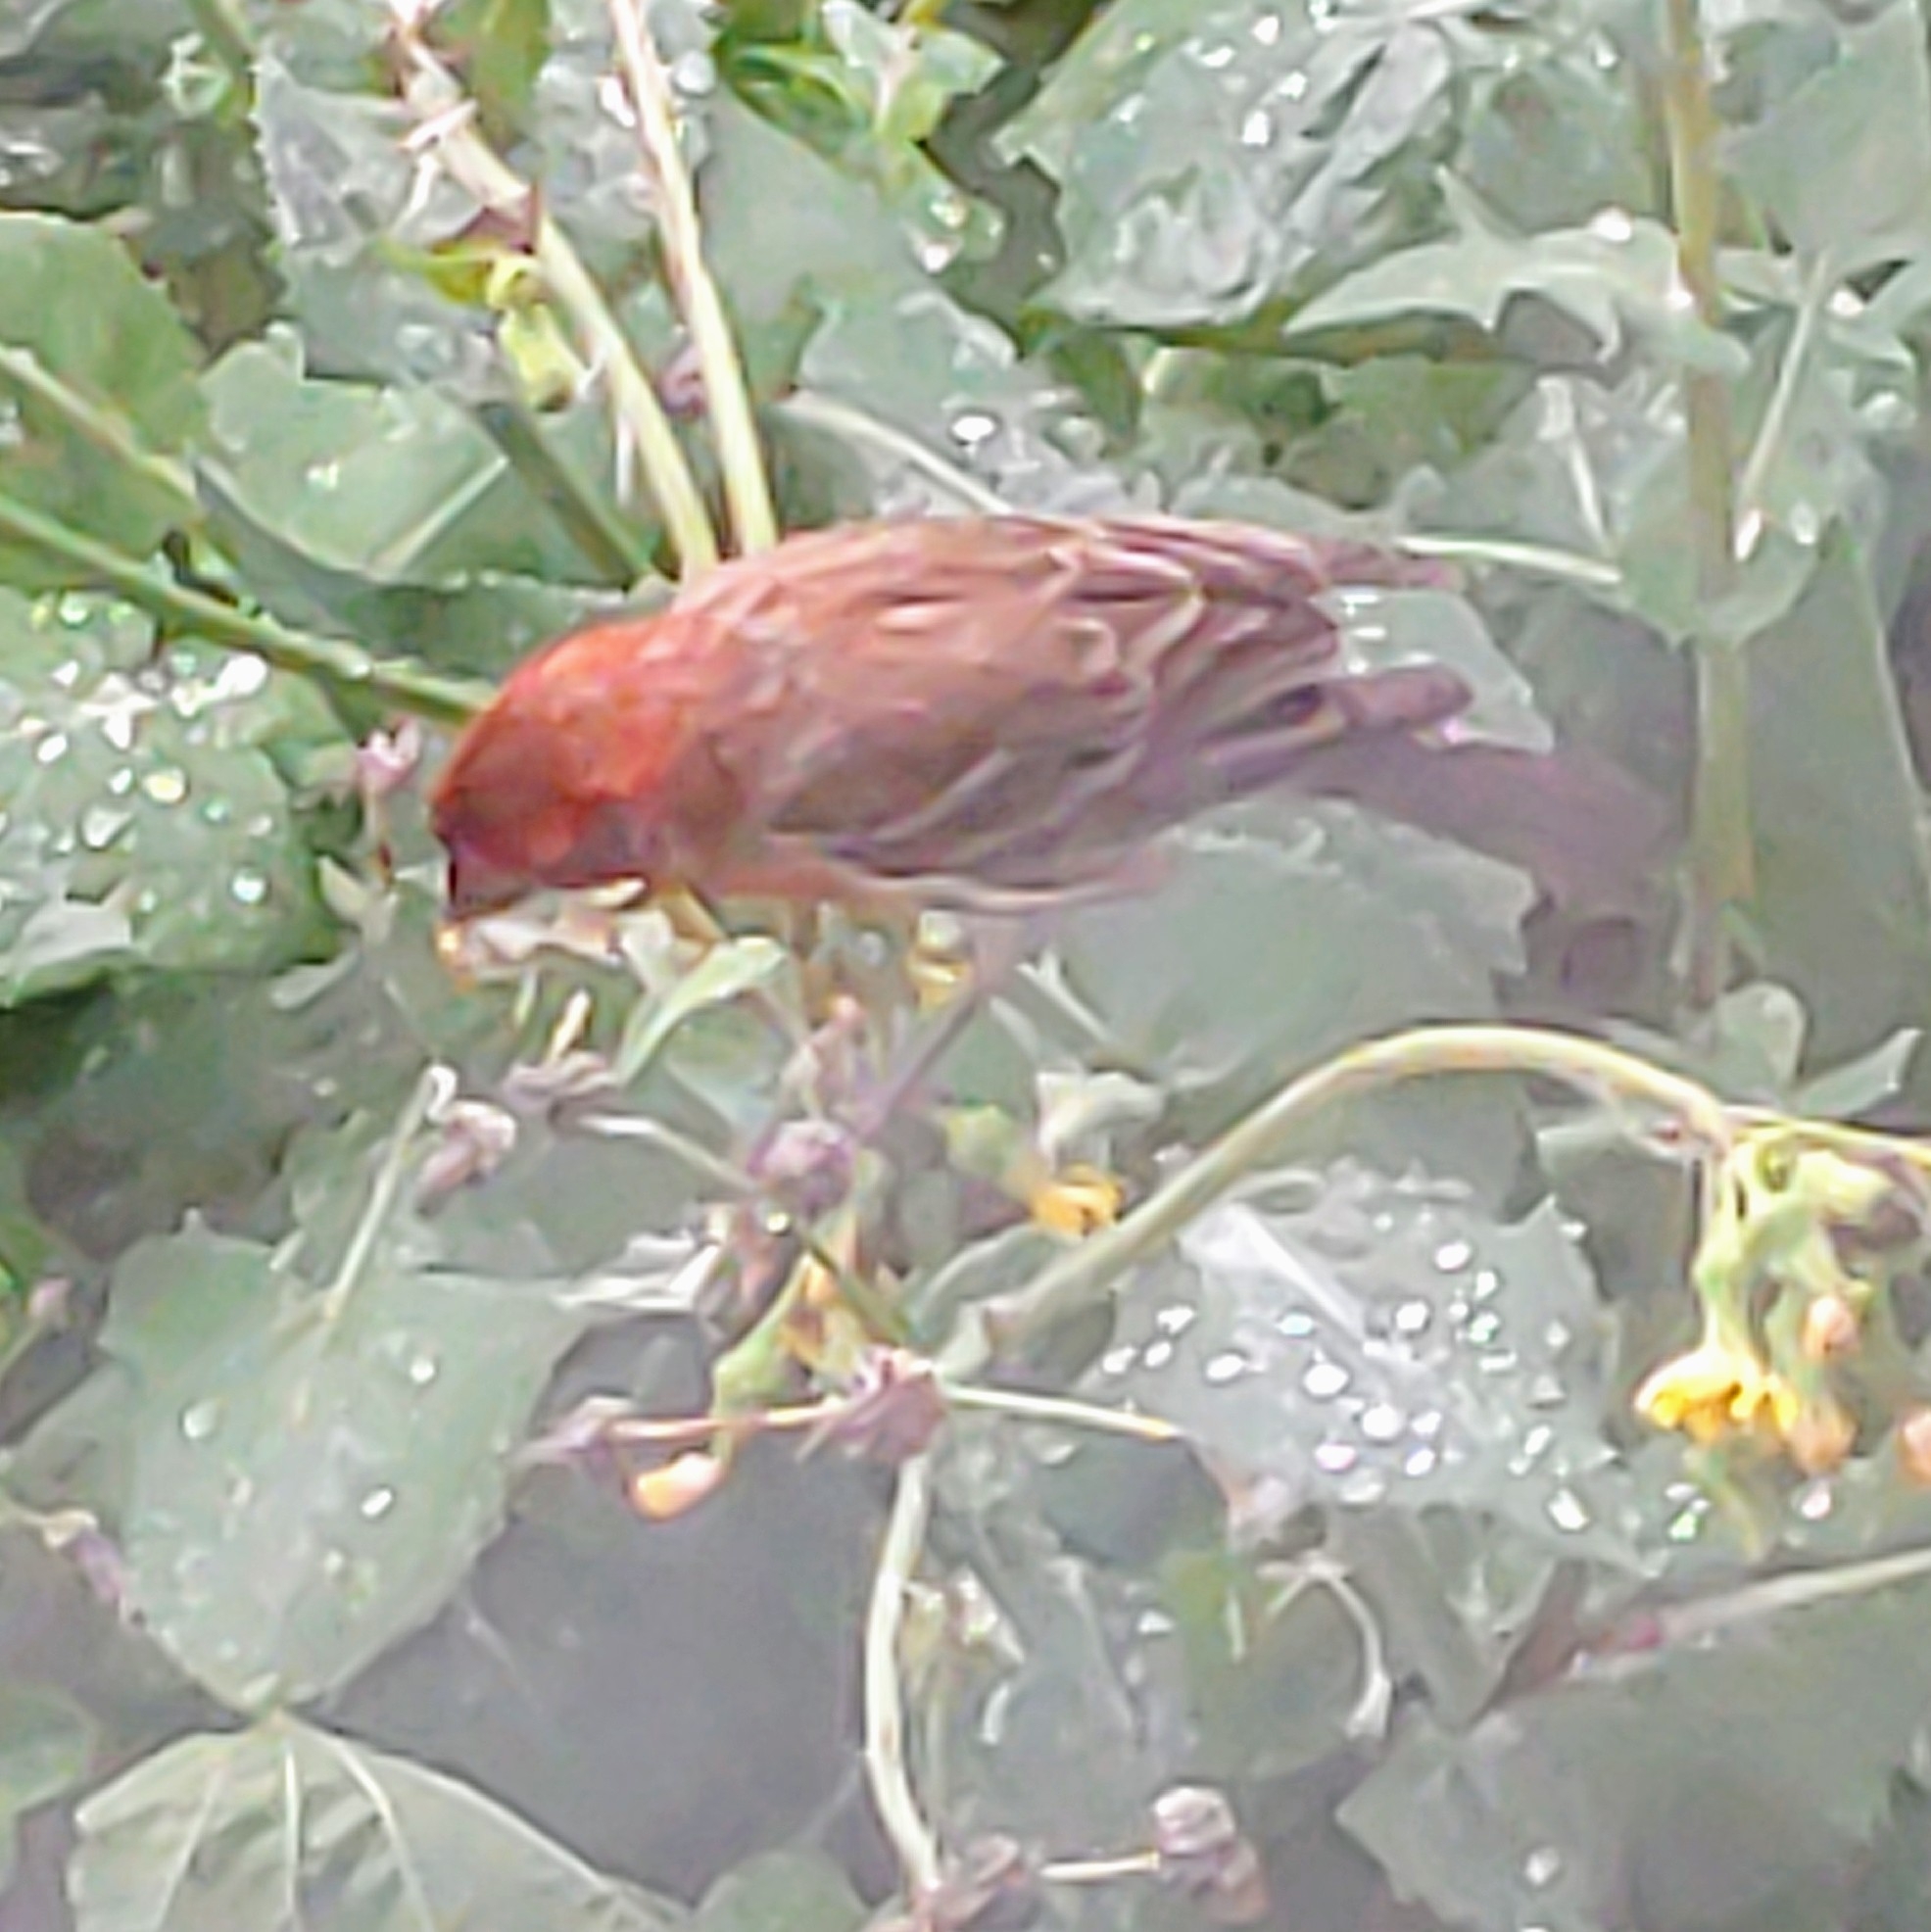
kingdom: Animalia
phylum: Chordata
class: Aves
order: Passeriformes
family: Fringillidae
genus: Haemorhous
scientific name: Haemorhous mexicanus
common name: House finch
